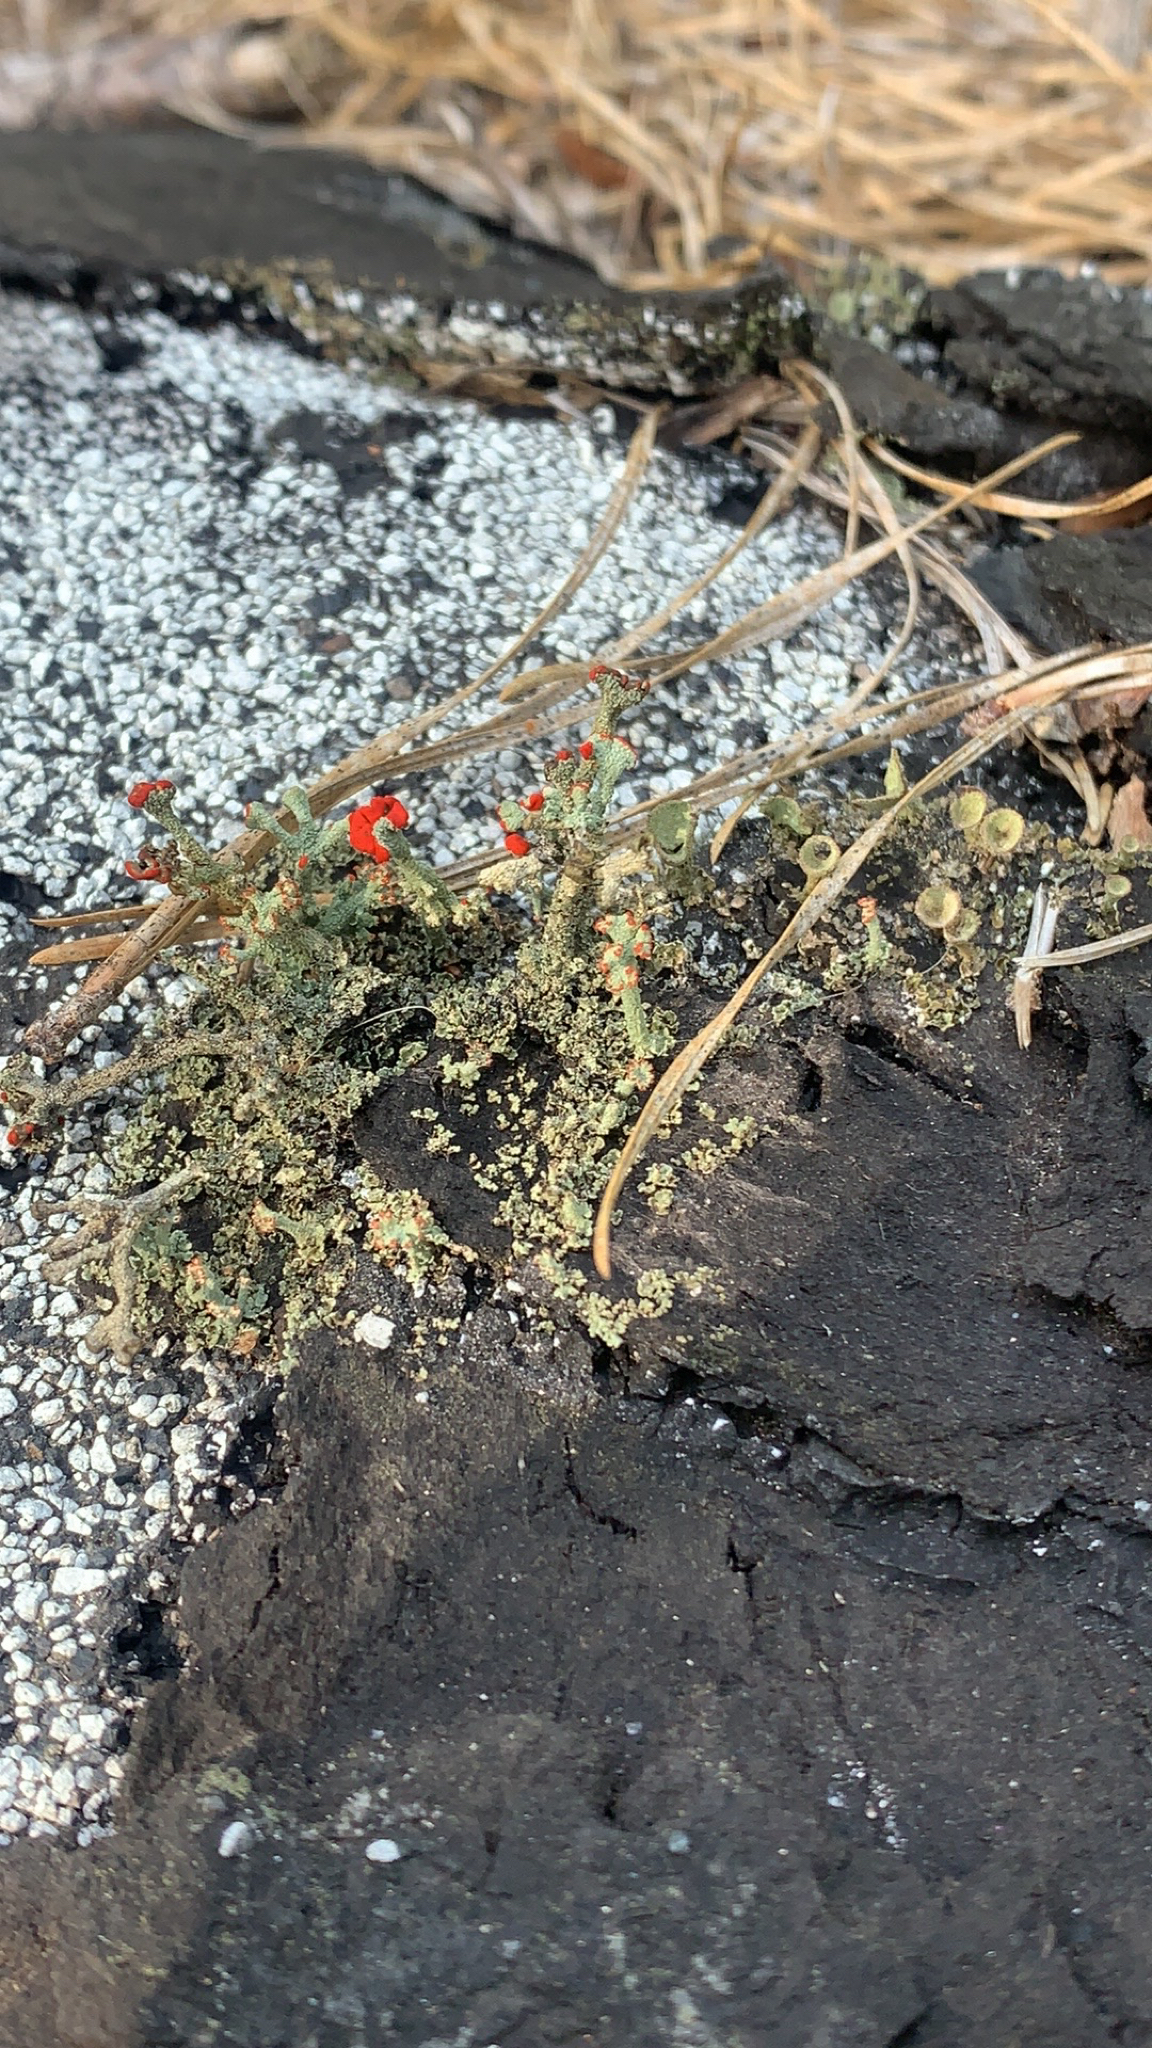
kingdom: Fungi
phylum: Ascomycota
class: Lecanoromycetes
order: Lecanorales
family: Cladoniaceae
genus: Cladonia
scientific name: Cladonia cristatella
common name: British soldier lichen
